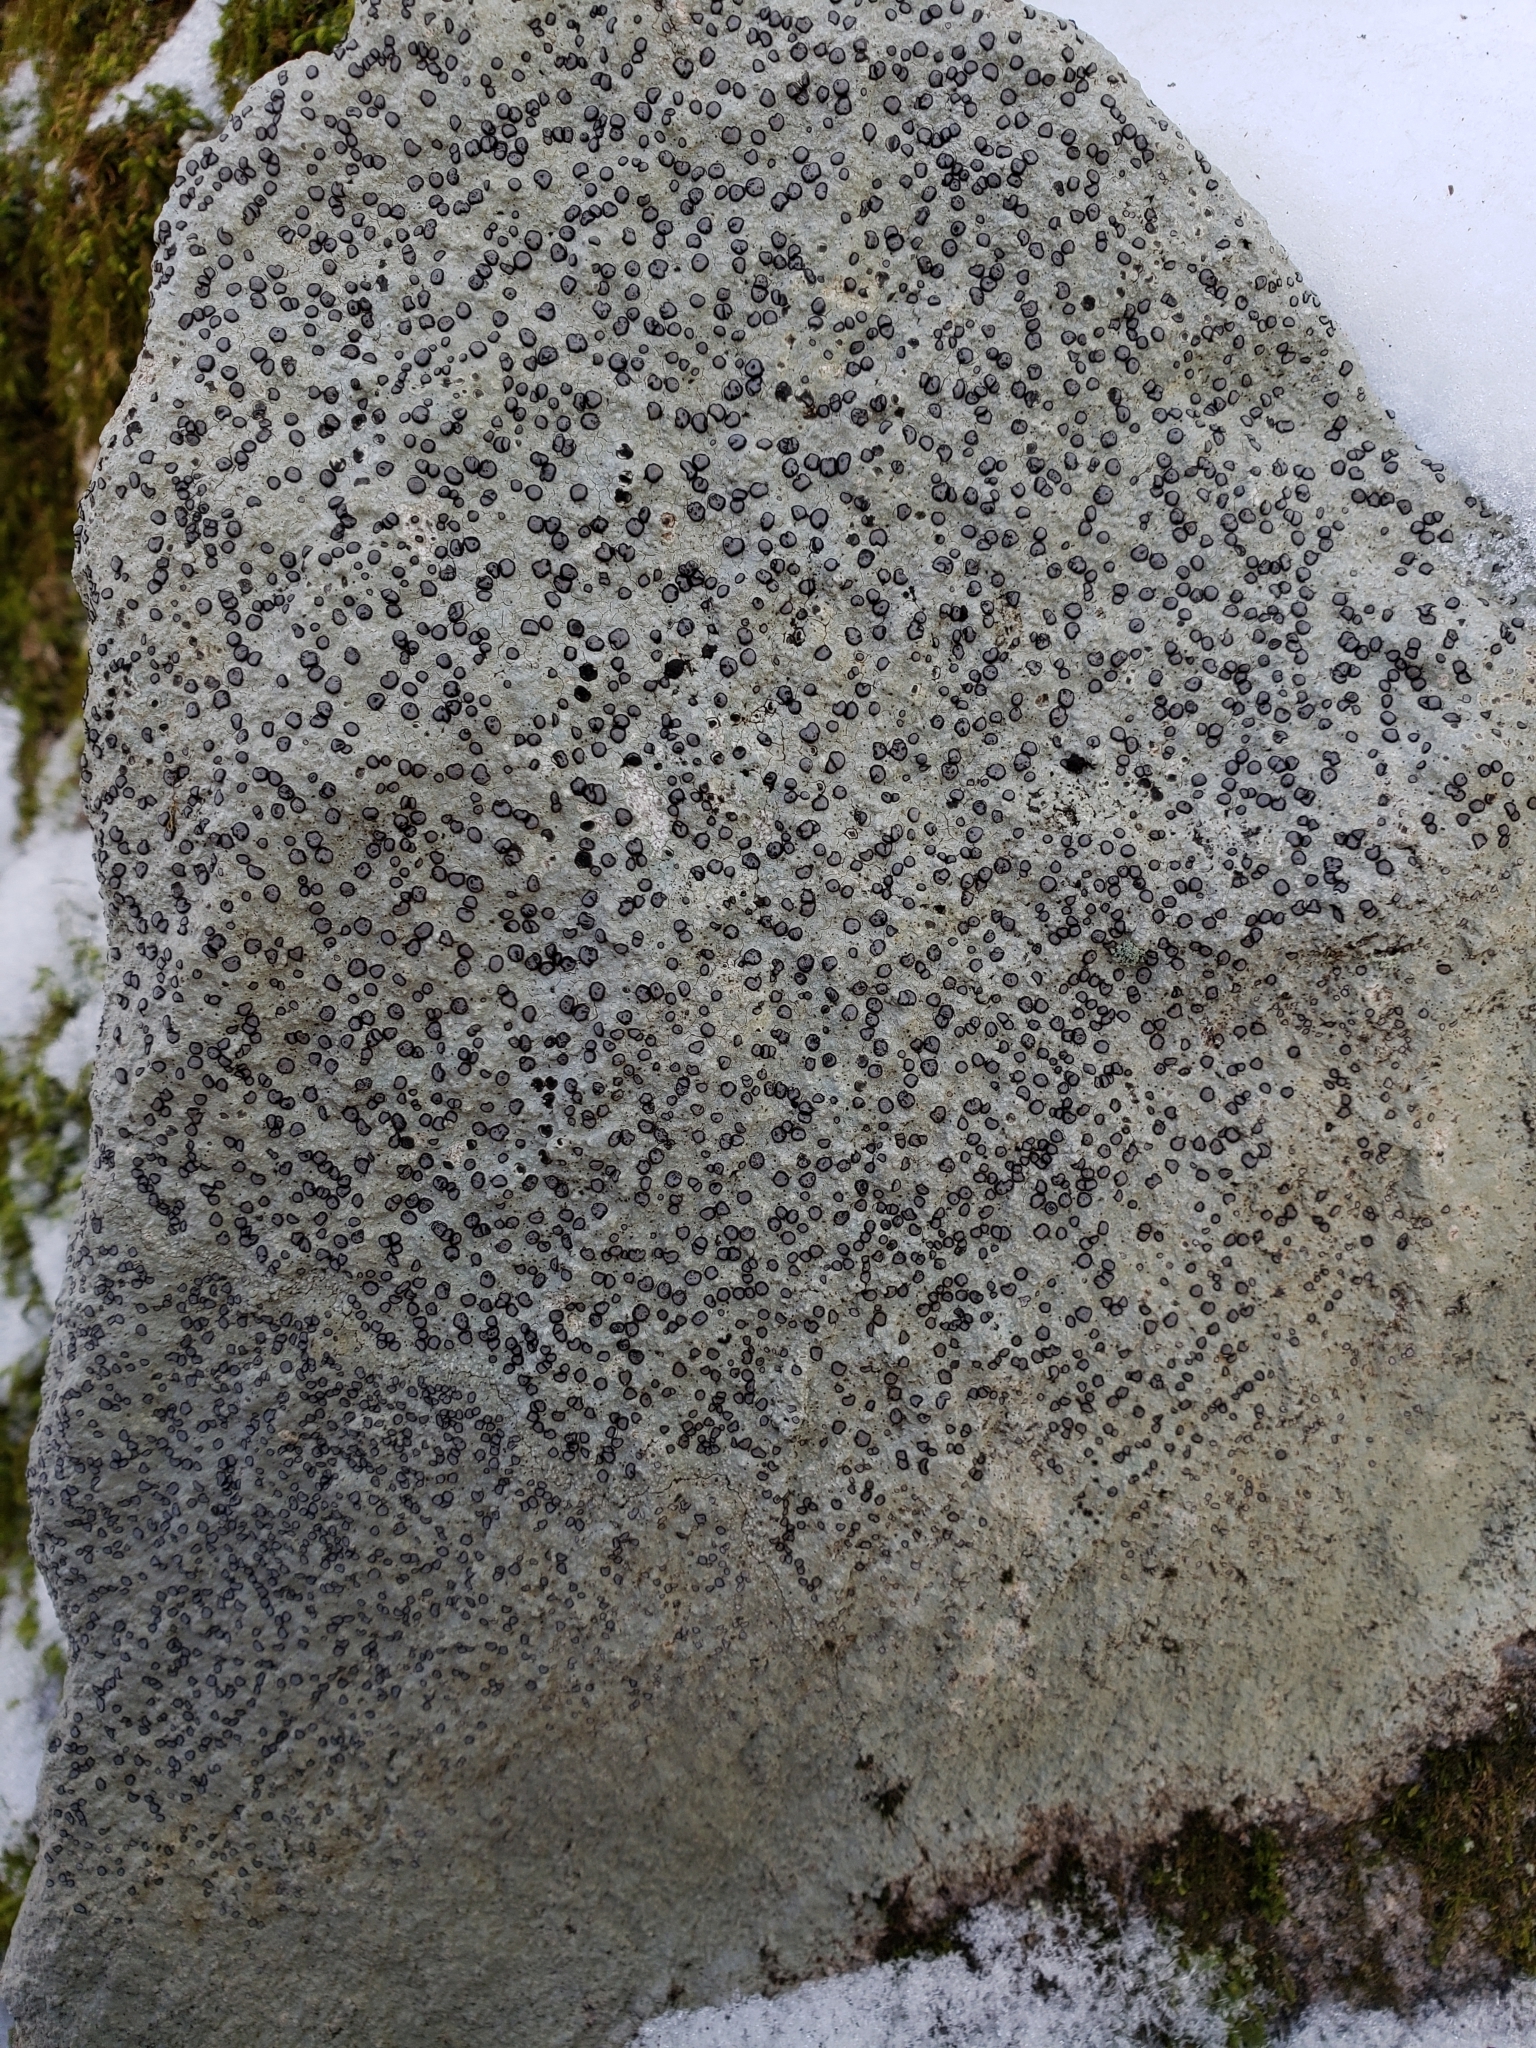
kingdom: Fungi
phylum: Ascomycota
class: Lecanoromycetes
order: Lecideales
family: Lecideaceae
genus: Porpidia
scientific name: Porpidia albocaerulescens
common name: Smokey-eyed boulder lichen
